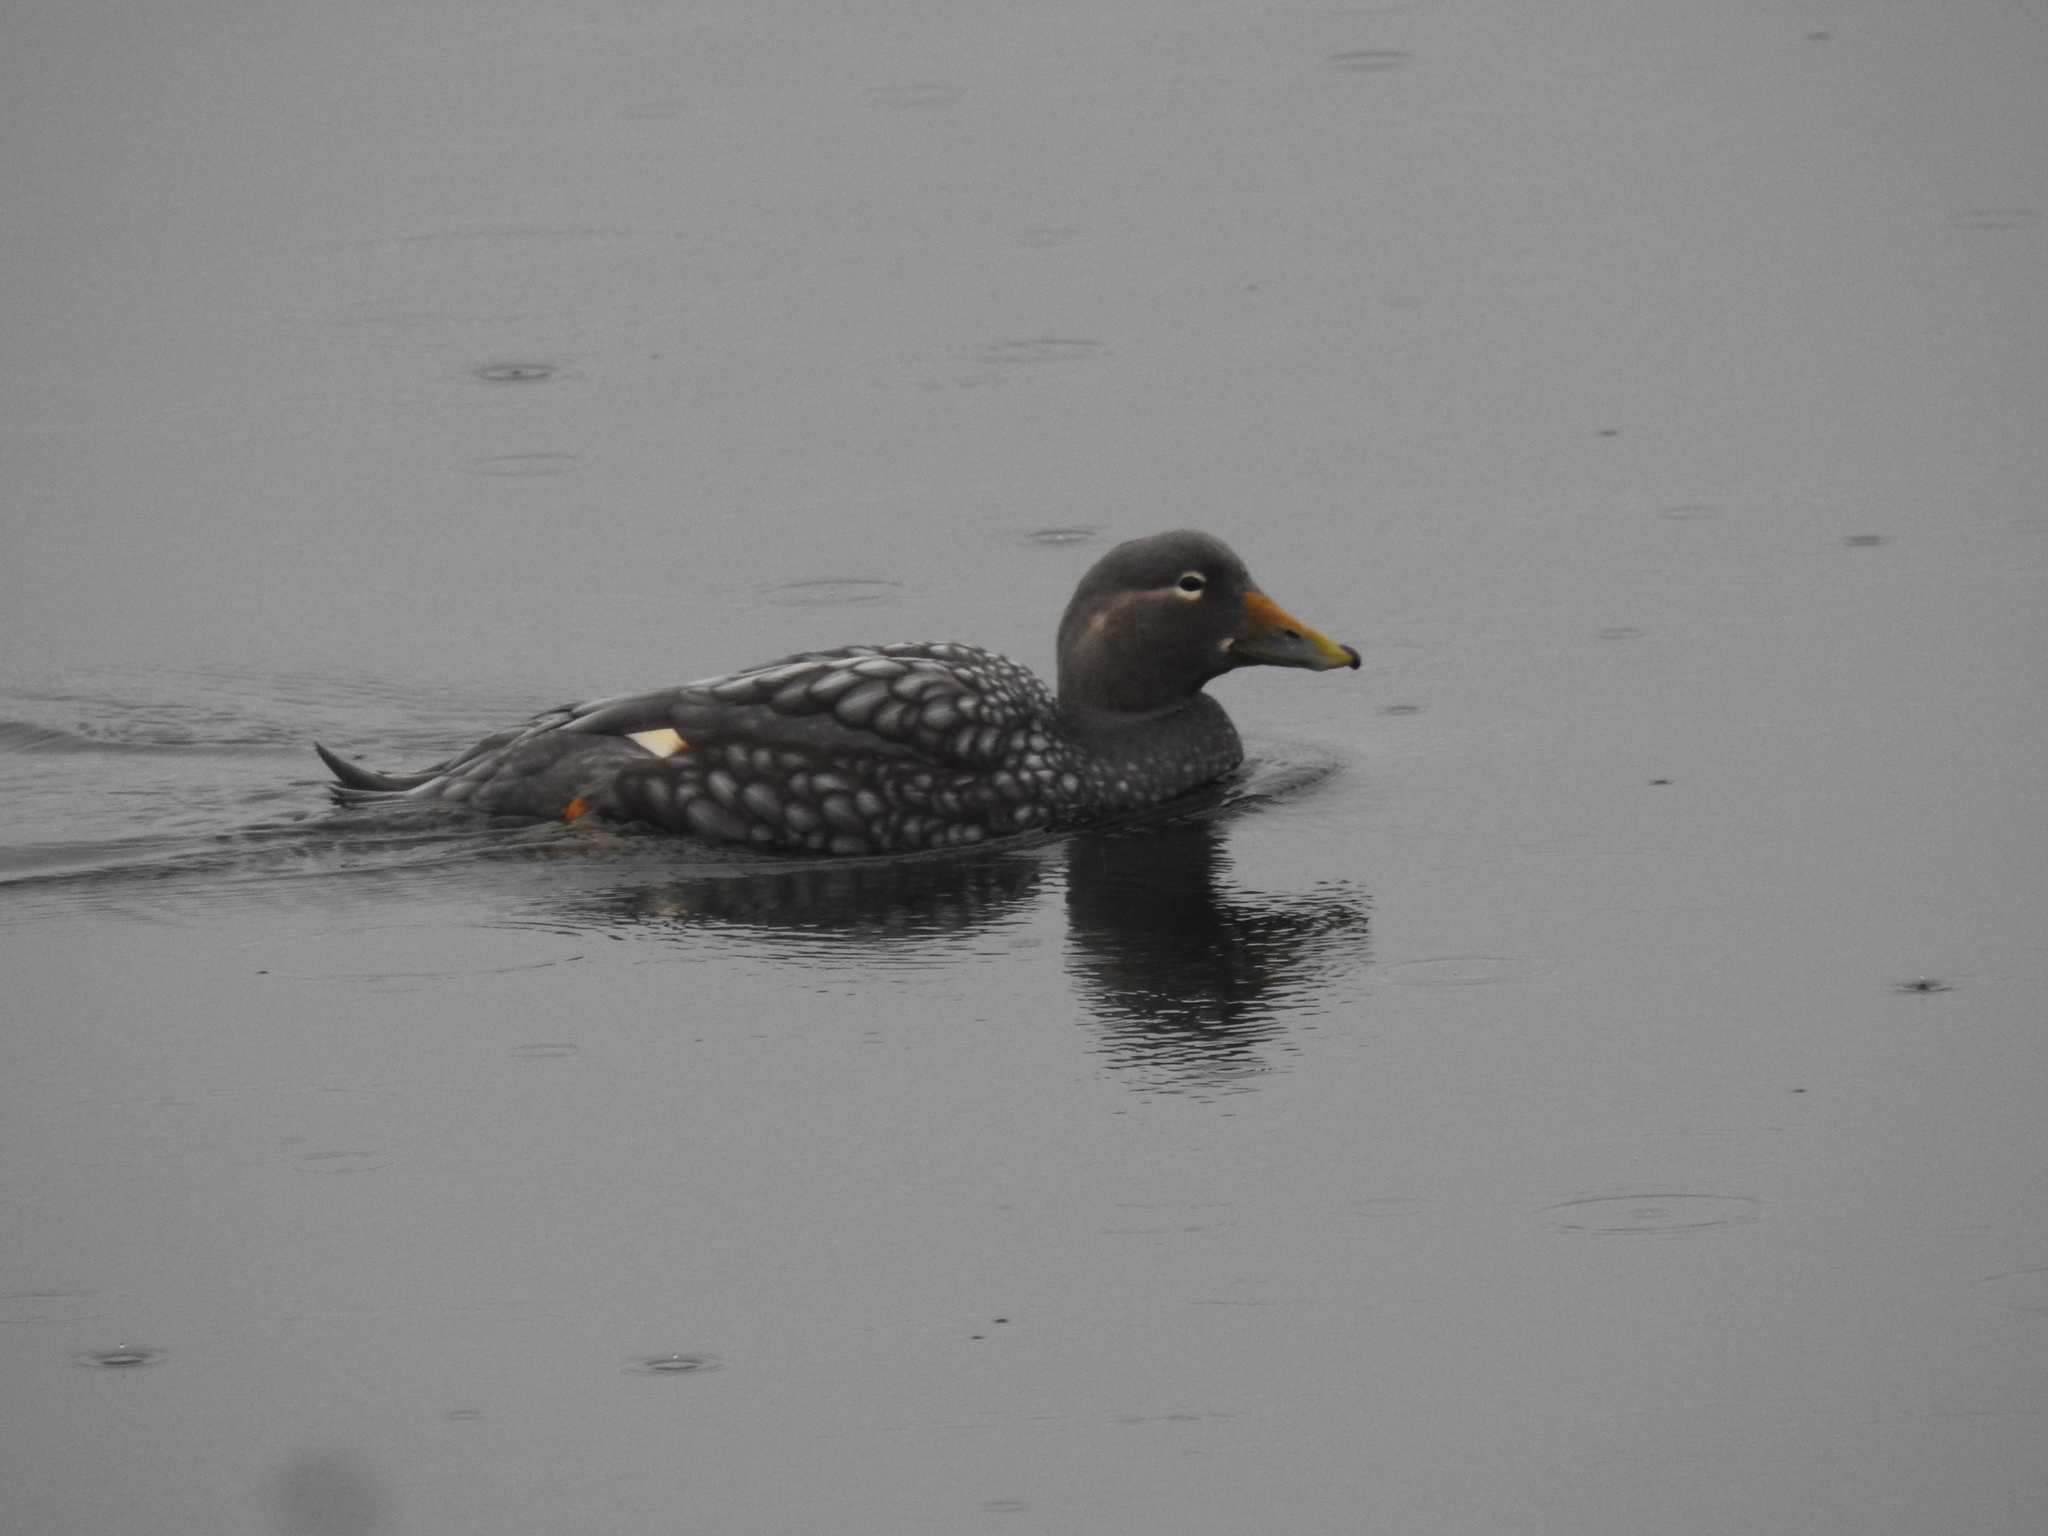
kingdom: Animalia
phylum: Chordata
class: Aves
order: Anseriformes
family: Anatidae
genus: Tachyeres
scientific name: Tachyeres patachonicus
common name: Flying steamer duck
